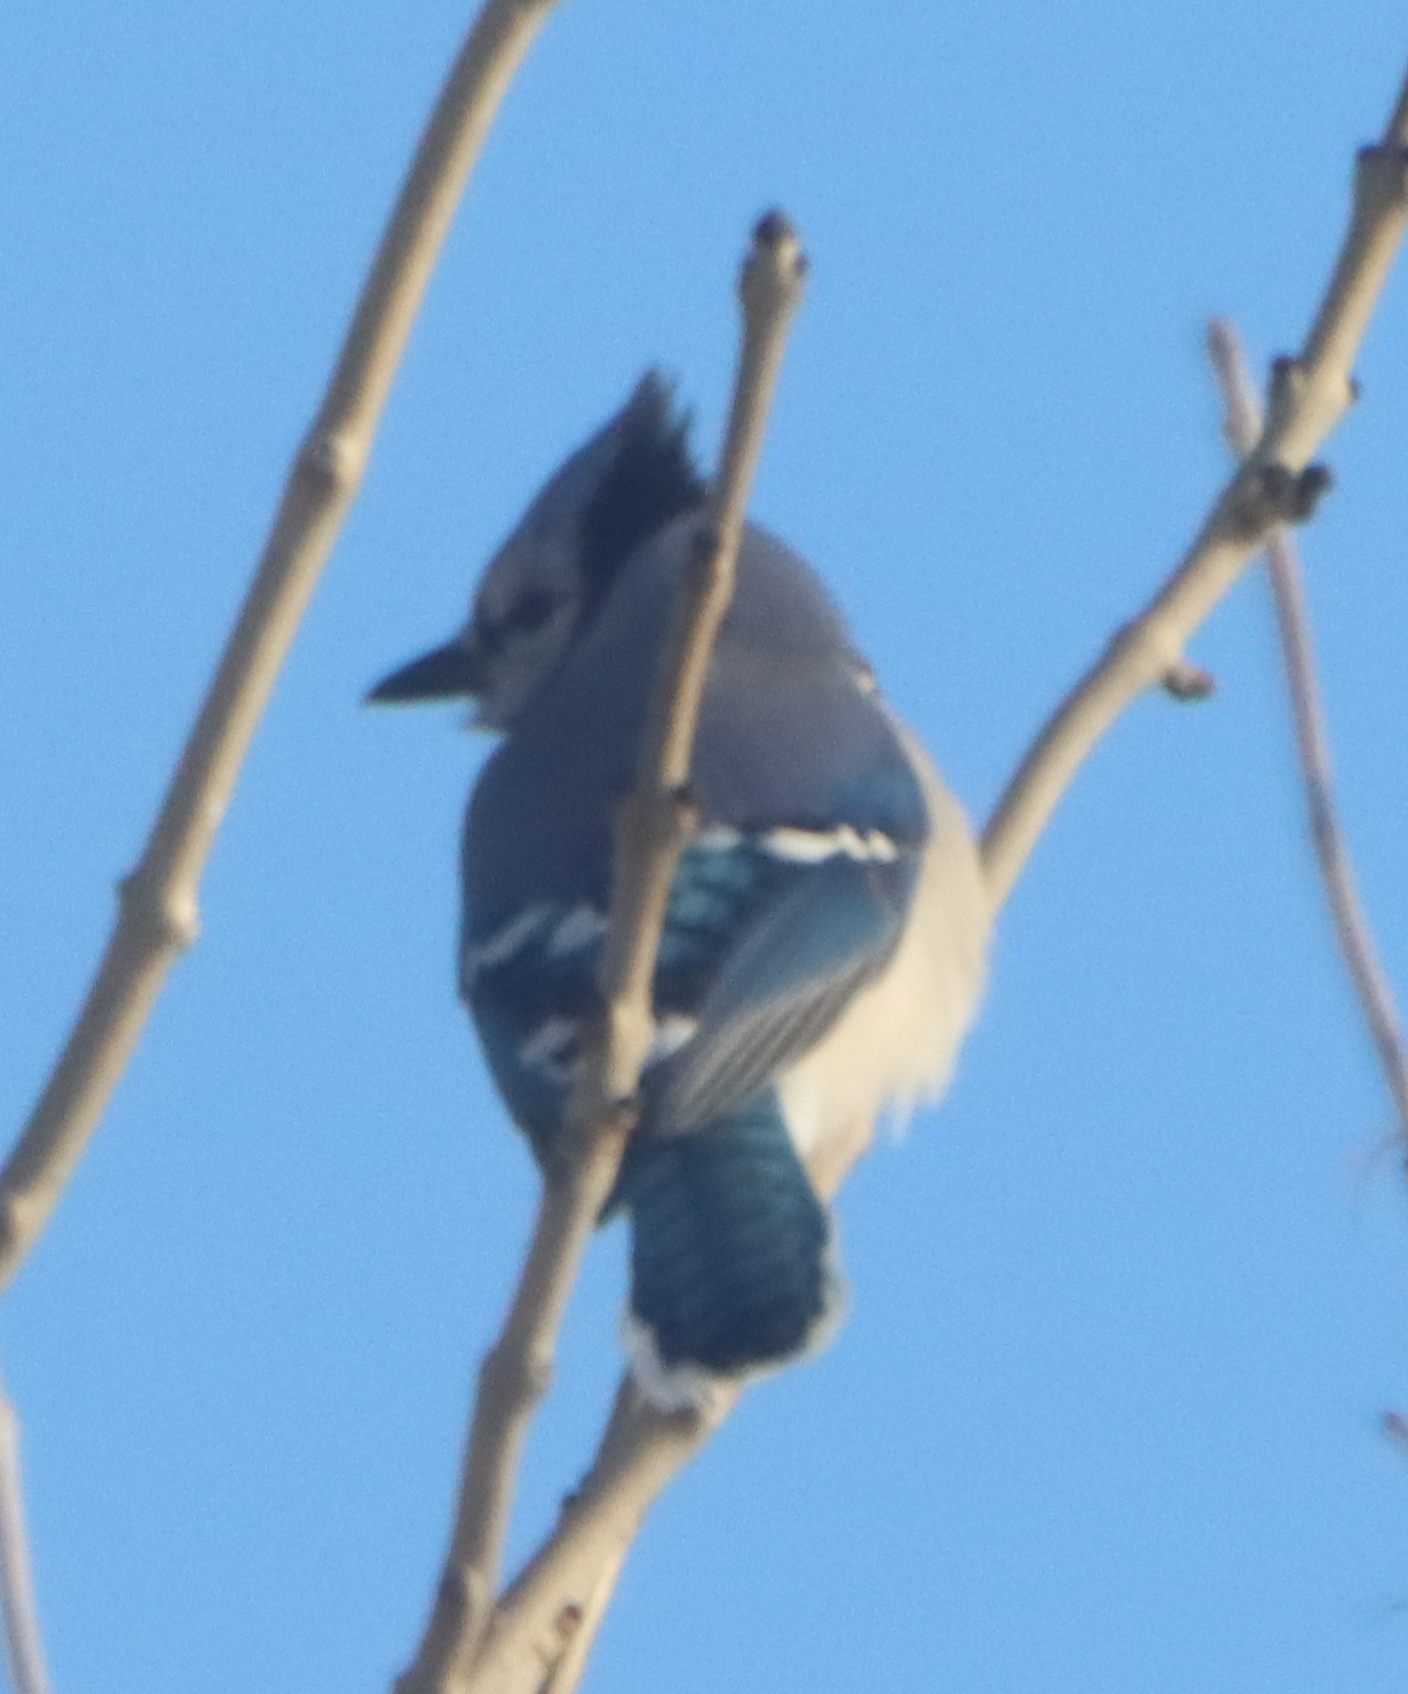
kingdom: Animalia
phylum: Chordata
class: Aves
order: Passeriformes
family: Corvidae
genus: Cyanocitta
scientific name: Cyanocitta cristata
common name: Blue jay
